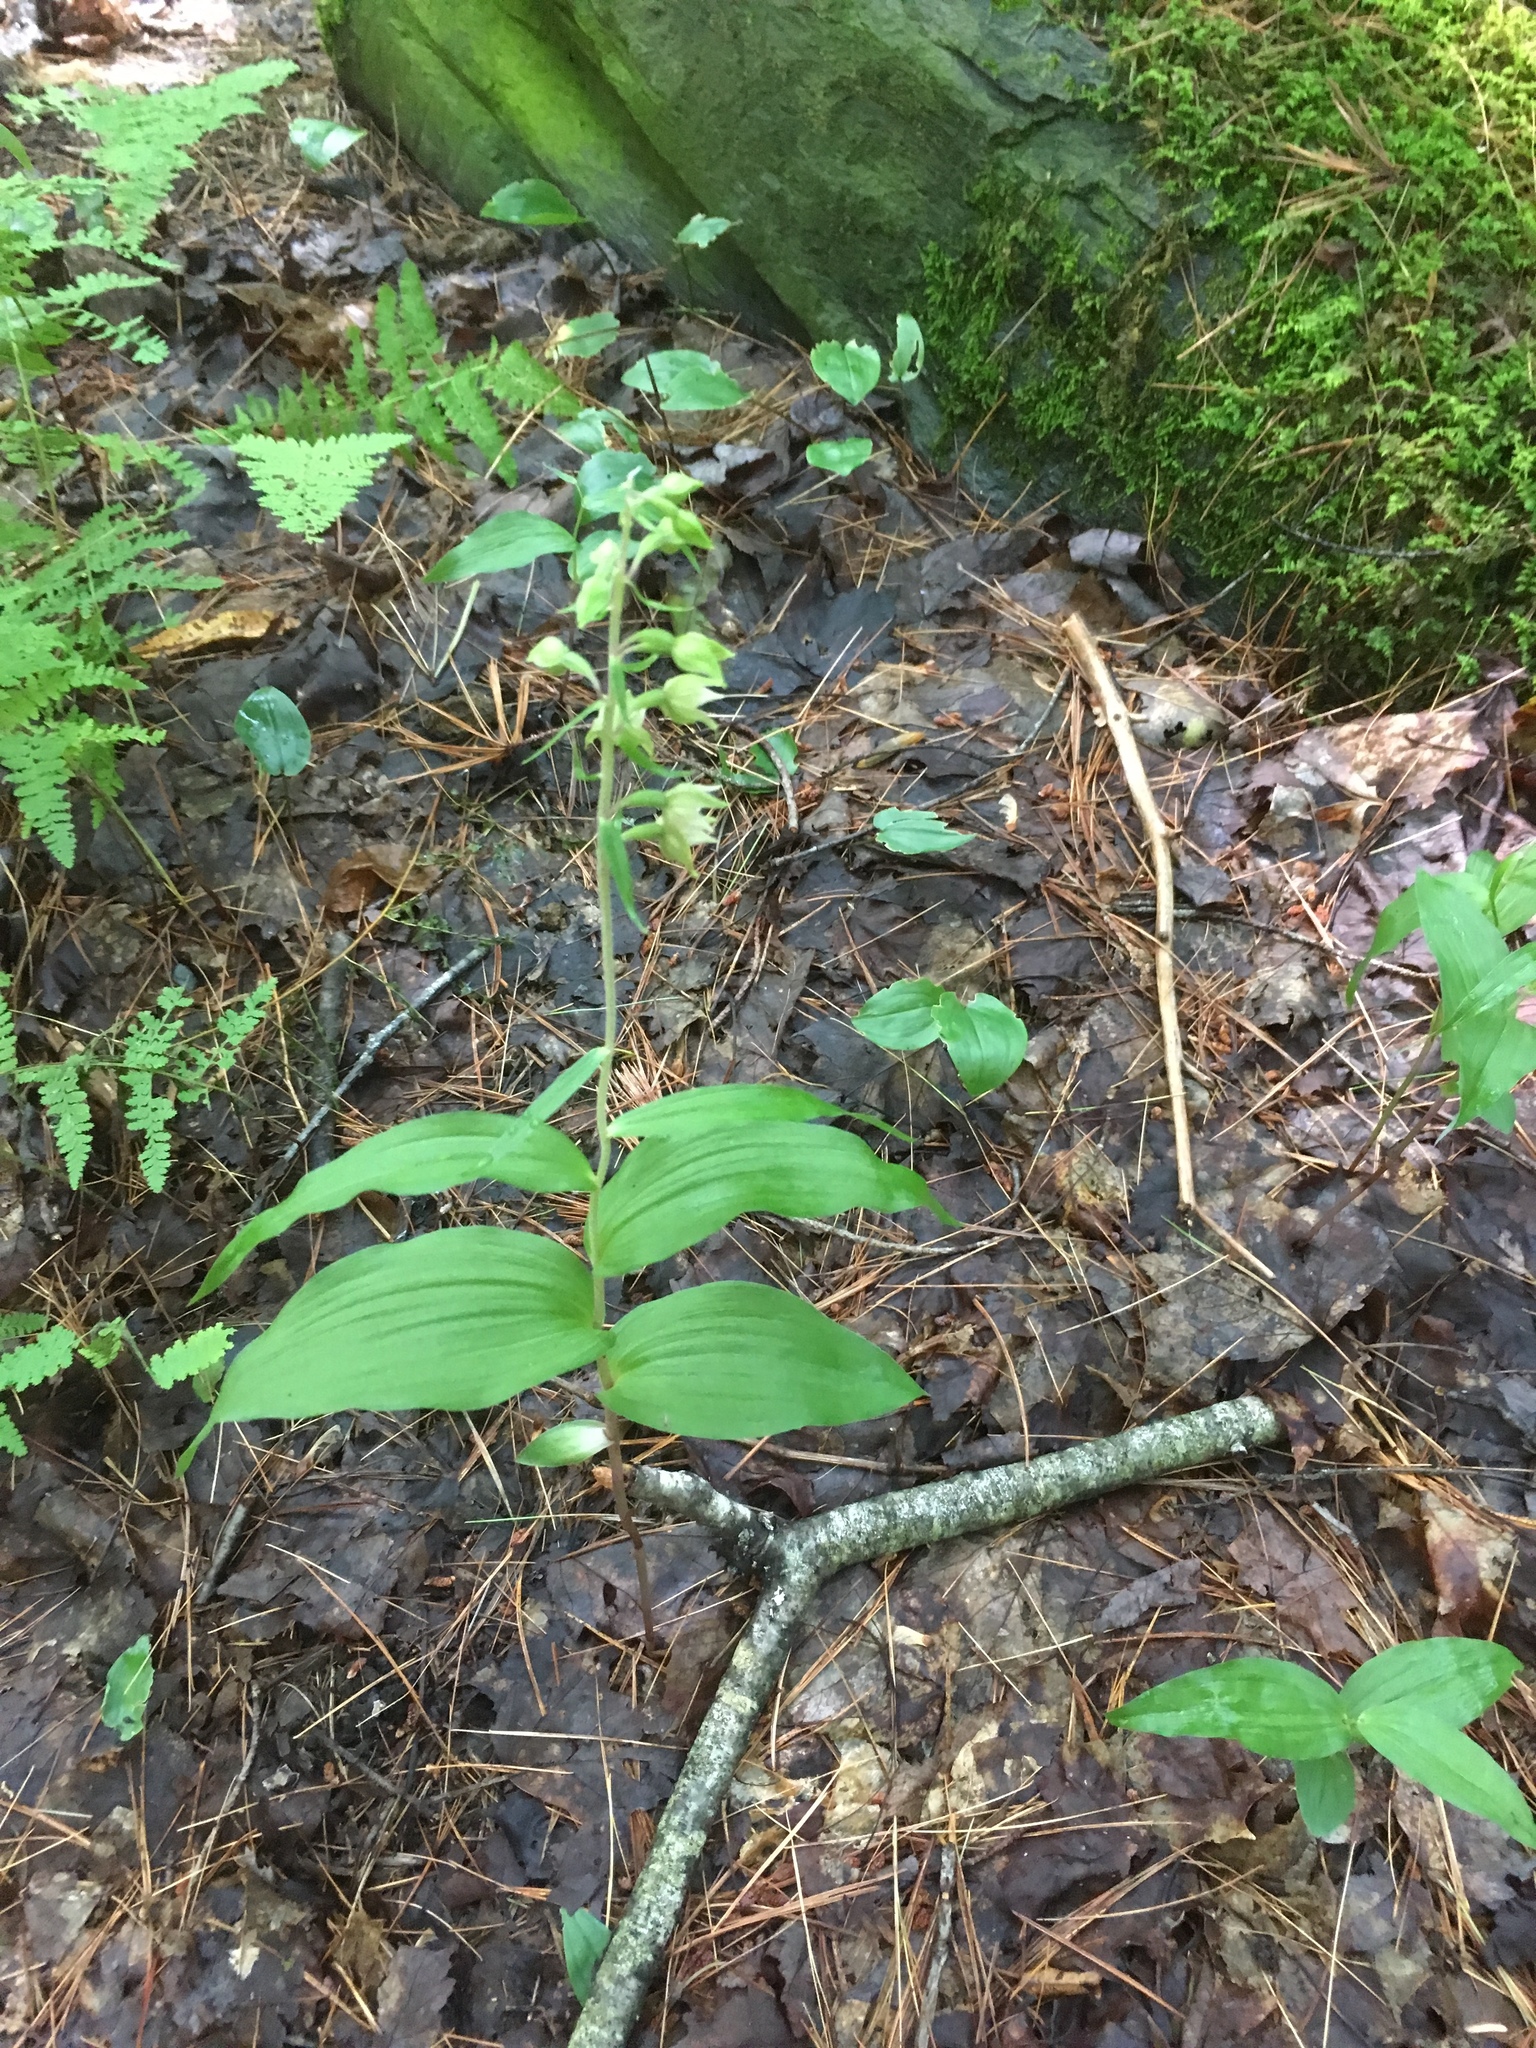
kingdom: Plantae
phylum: Tracheophyta
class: Liliopsida
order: Asparagales
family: Orchidaceae
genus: Epipactis
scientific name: Epipactis helleborine
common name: Broad-leaved helleborine
